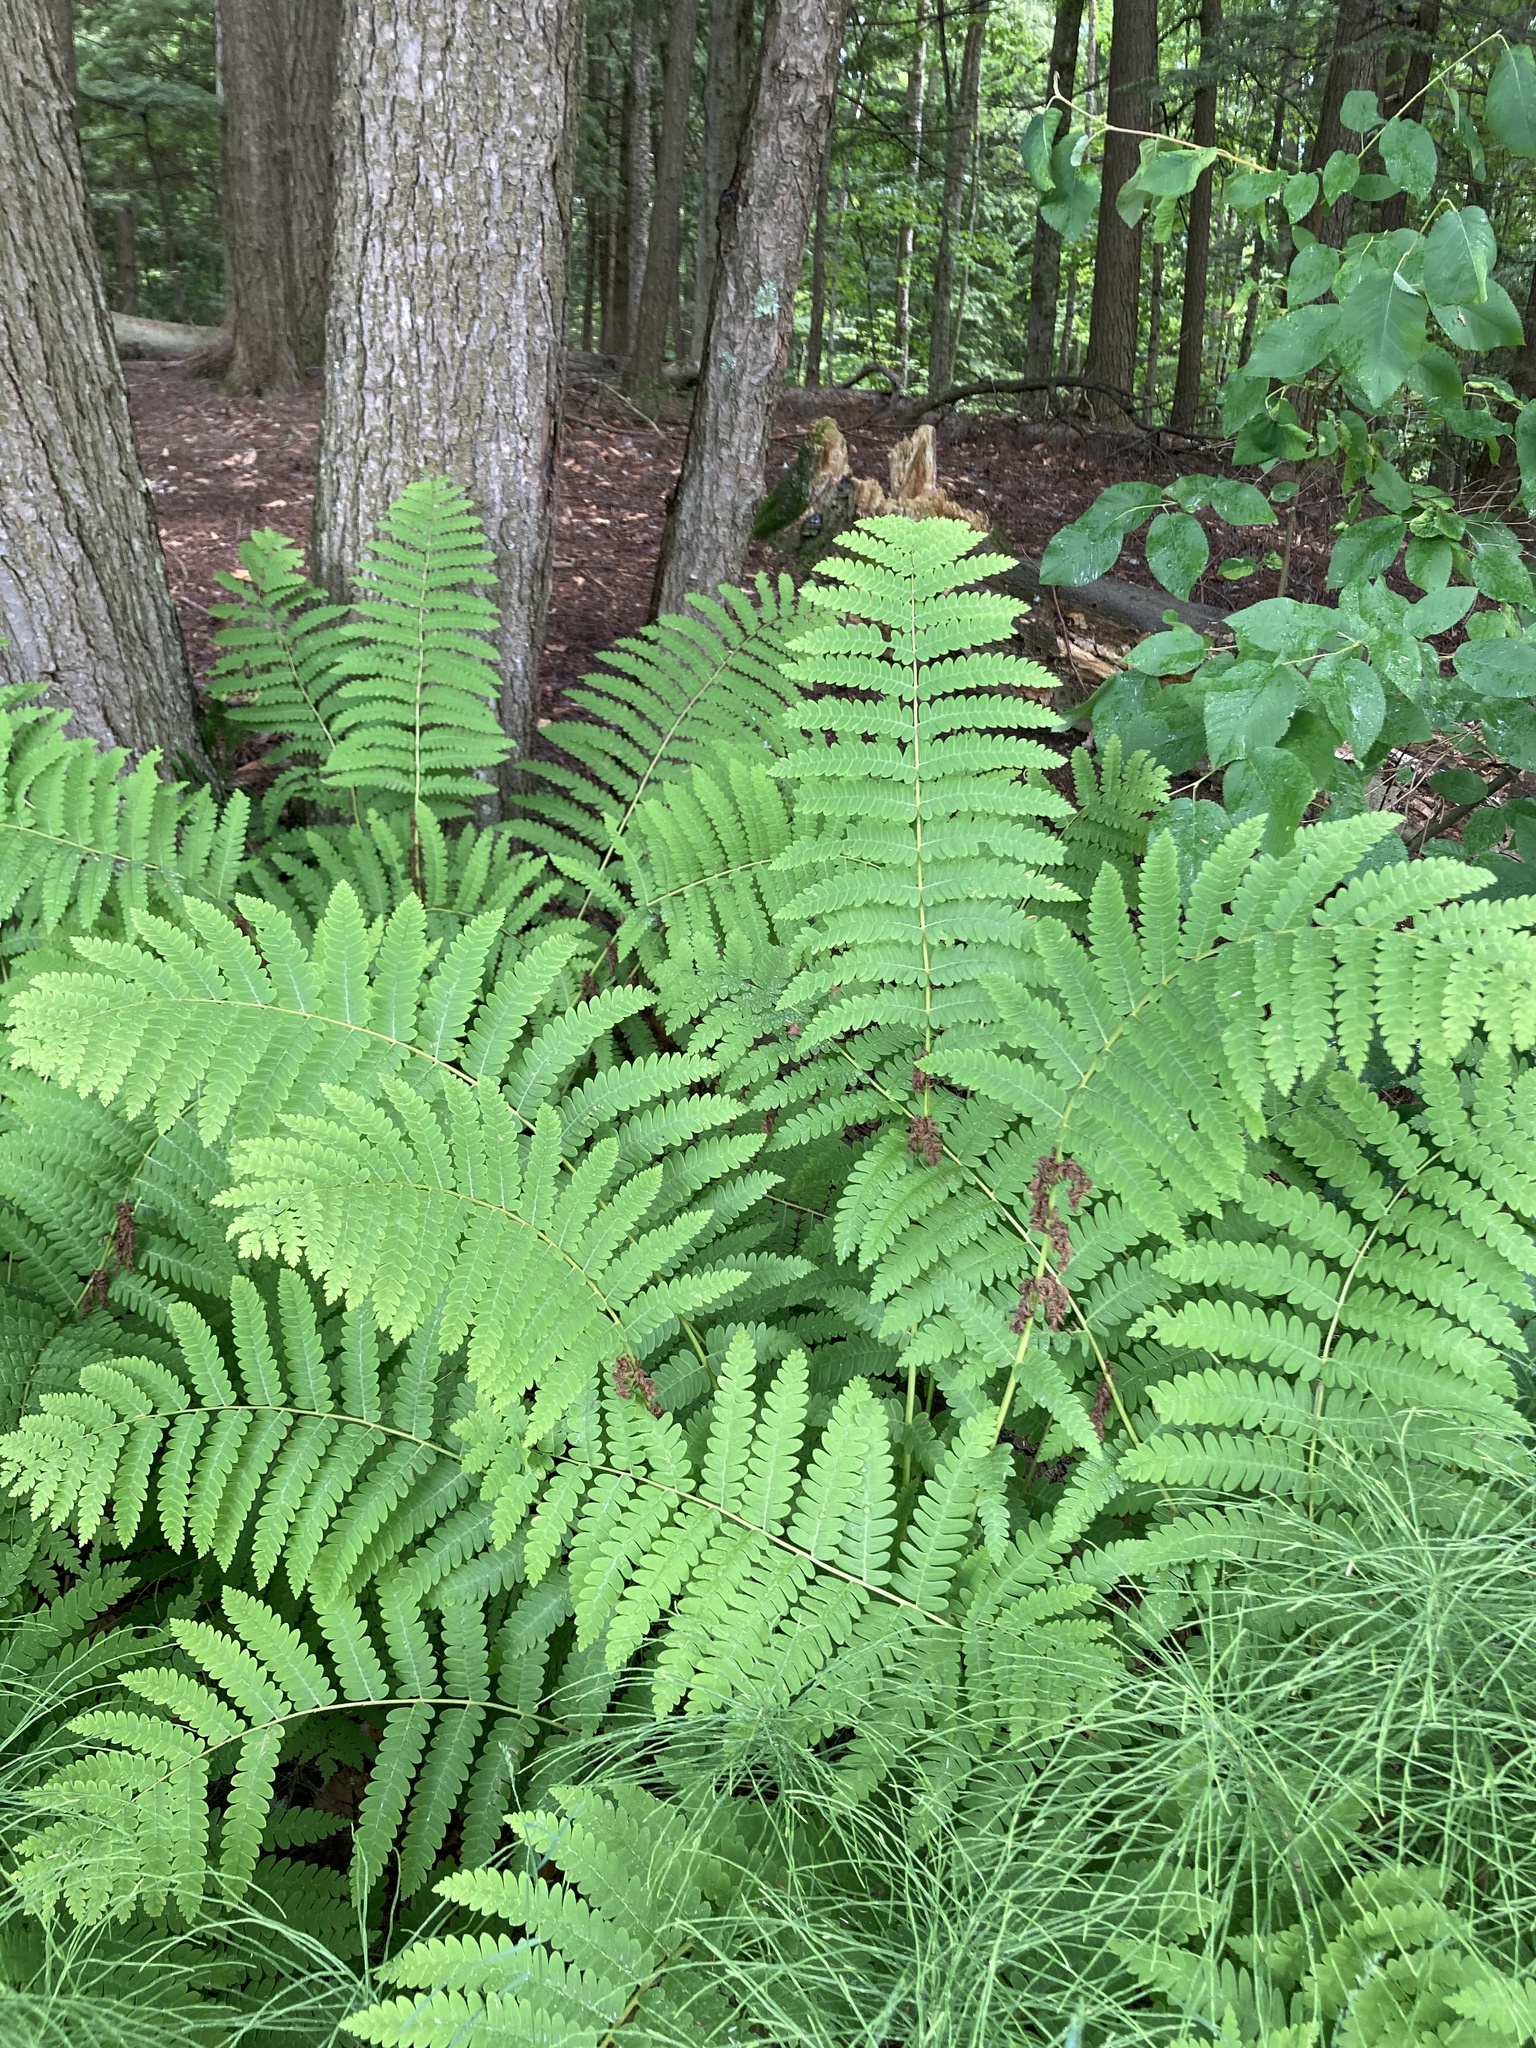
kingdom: Plantae
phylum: Tracheophyta
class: Polypodiopsida
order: Osmundales
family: Osmundaceae
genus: Claytosmunda
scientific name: Claytosmunda claytoniana
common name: Clayton's fern
